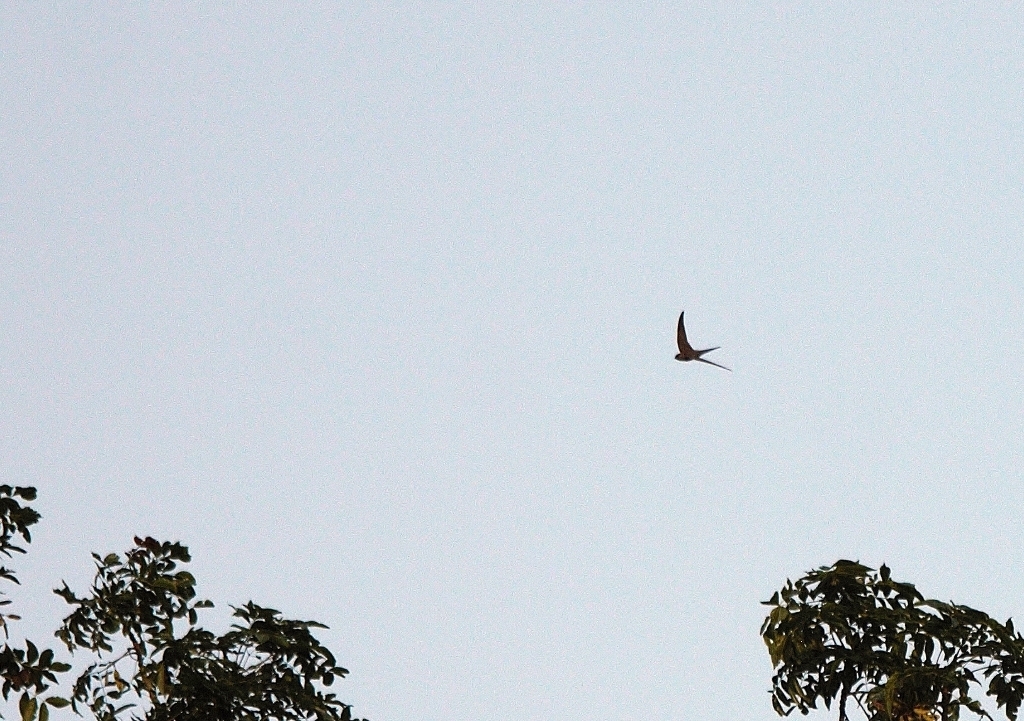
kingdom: Animalia
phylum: Chordata
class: Aves
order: Apodiformes
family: Apodidae
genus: Cypsiurus
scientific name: Cypsiurus parvus
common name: African palm swift
